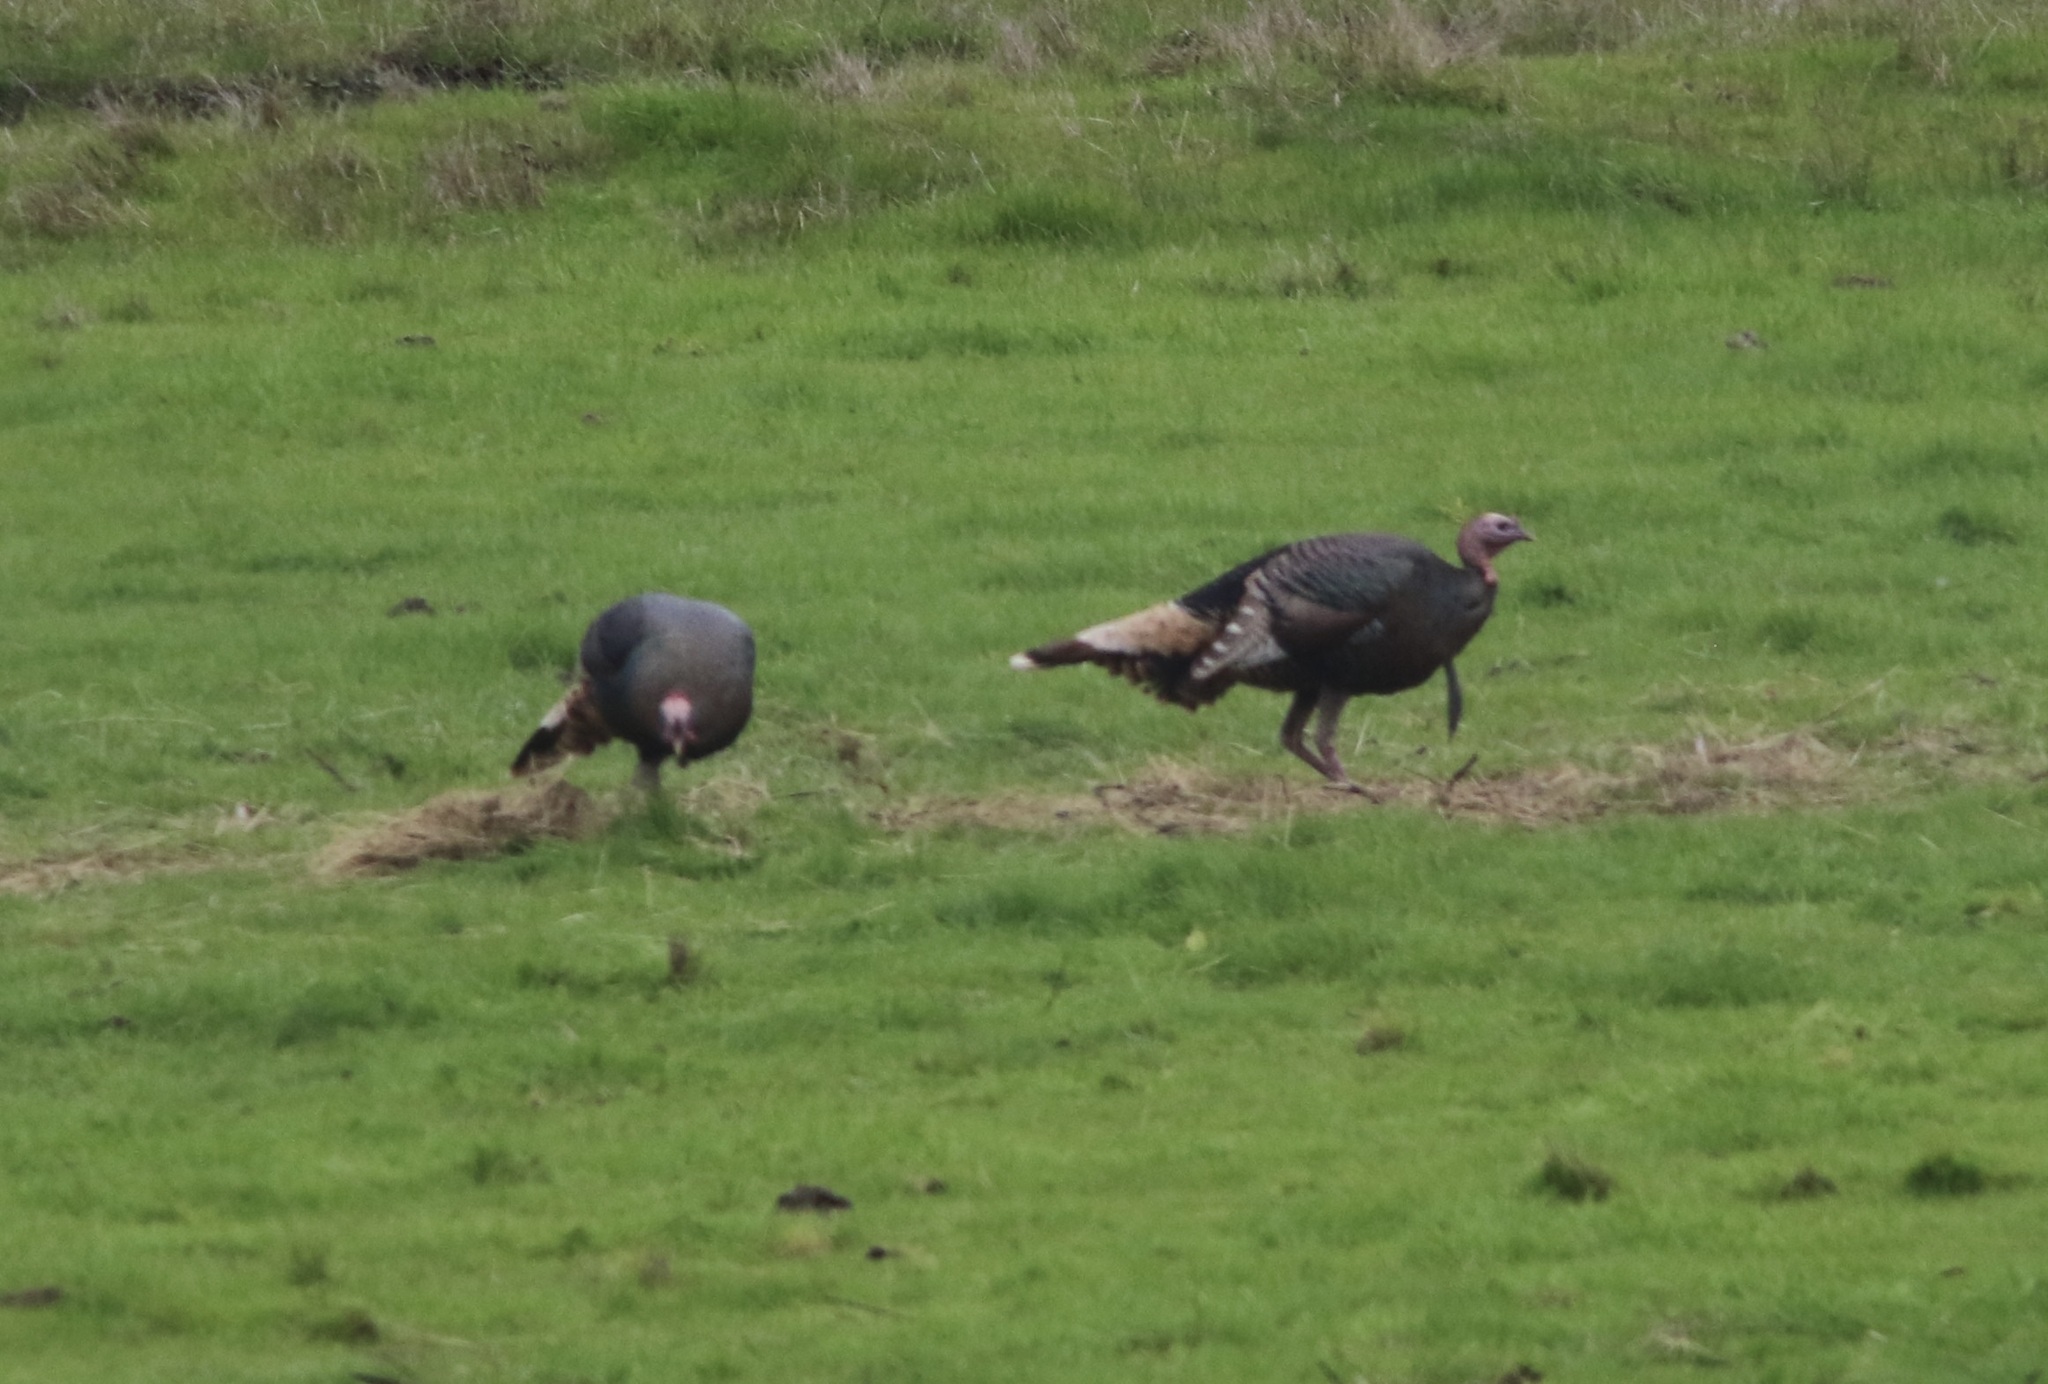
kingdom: Animalia
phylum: Chordata
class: Aves
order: Galliformes
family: Phasianidae
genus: Meleagris
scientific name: Meleagris gallopavo
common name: Wild turkey
